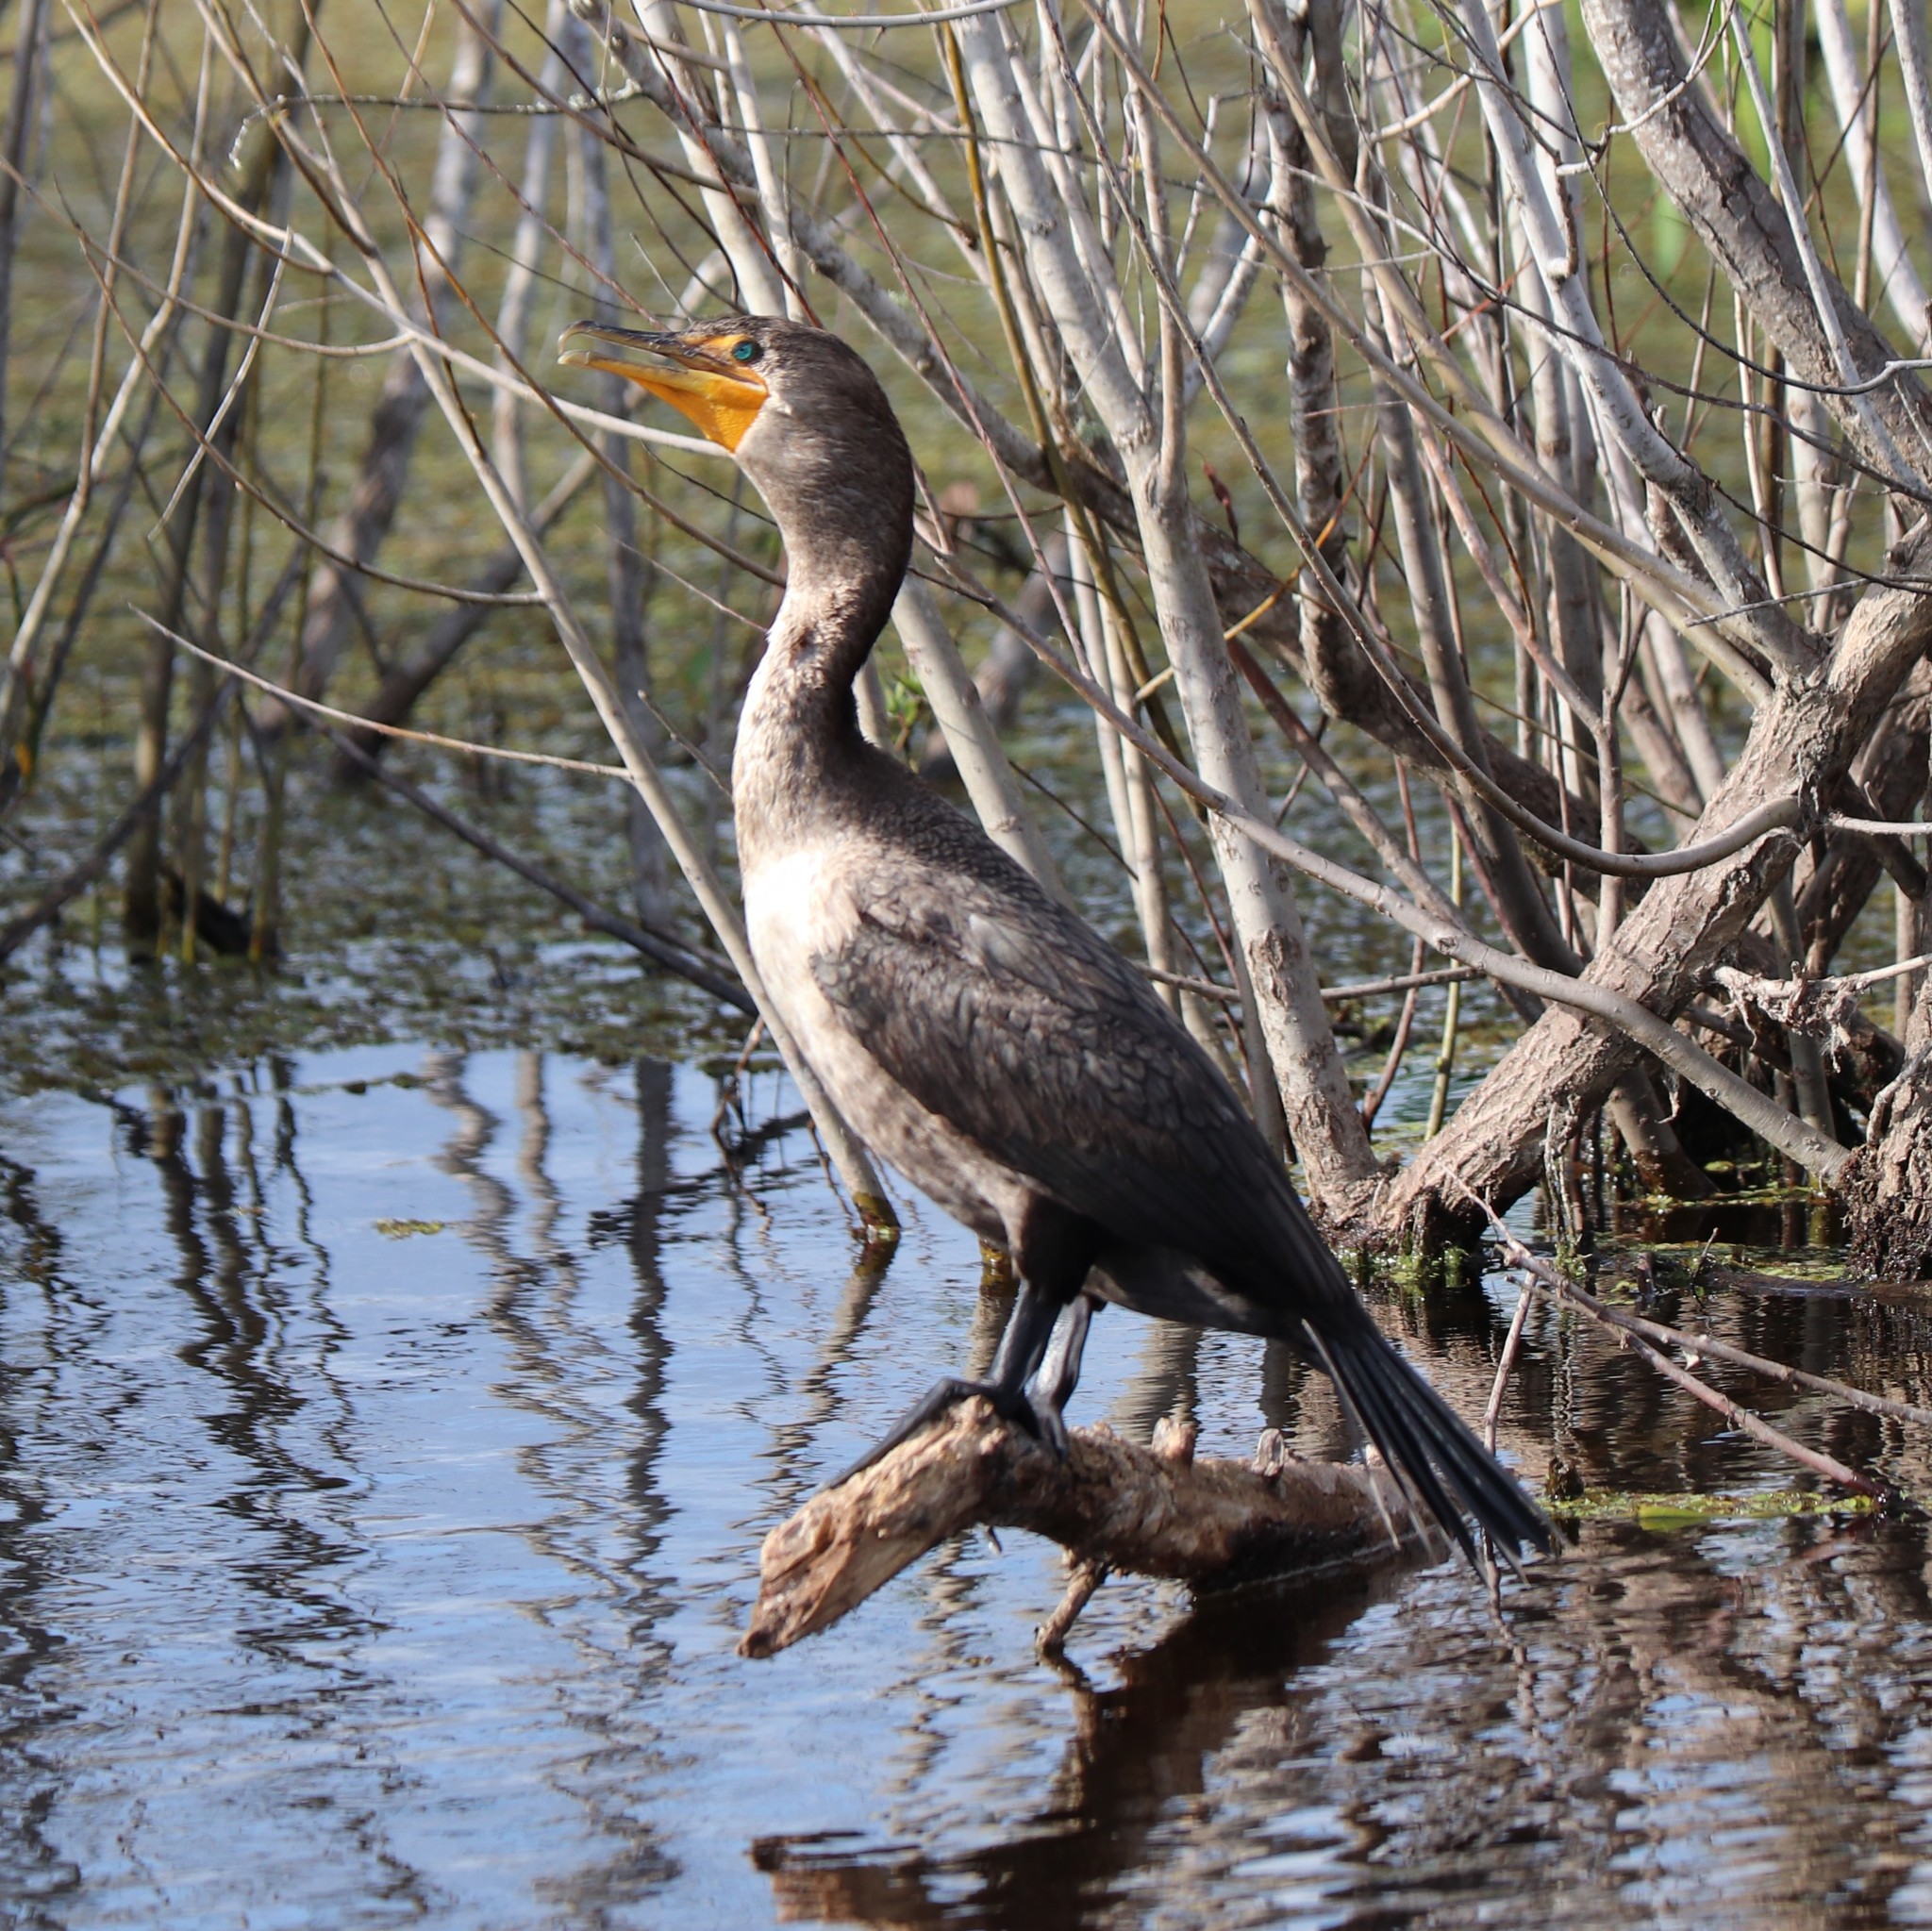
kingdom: Animalia
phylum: Chordata
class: Aves
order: Suliformes
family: Phalacrocoracidae
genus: Phalacrocorax
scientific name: Phalacrocorax auritus
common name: Double-crested cormorant
